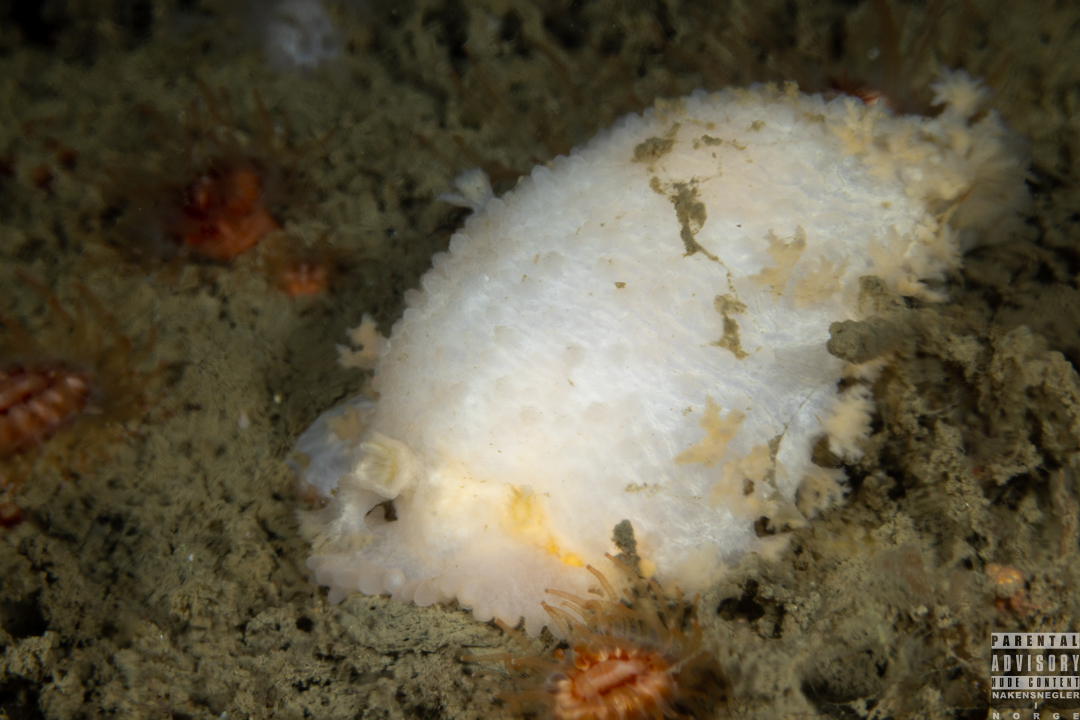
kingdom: Animalia
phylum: Mollusca
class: Gastropoda
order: Nudibranchia
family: Tritoniidae
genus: Tritonia
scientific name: Tritonia hombergii
